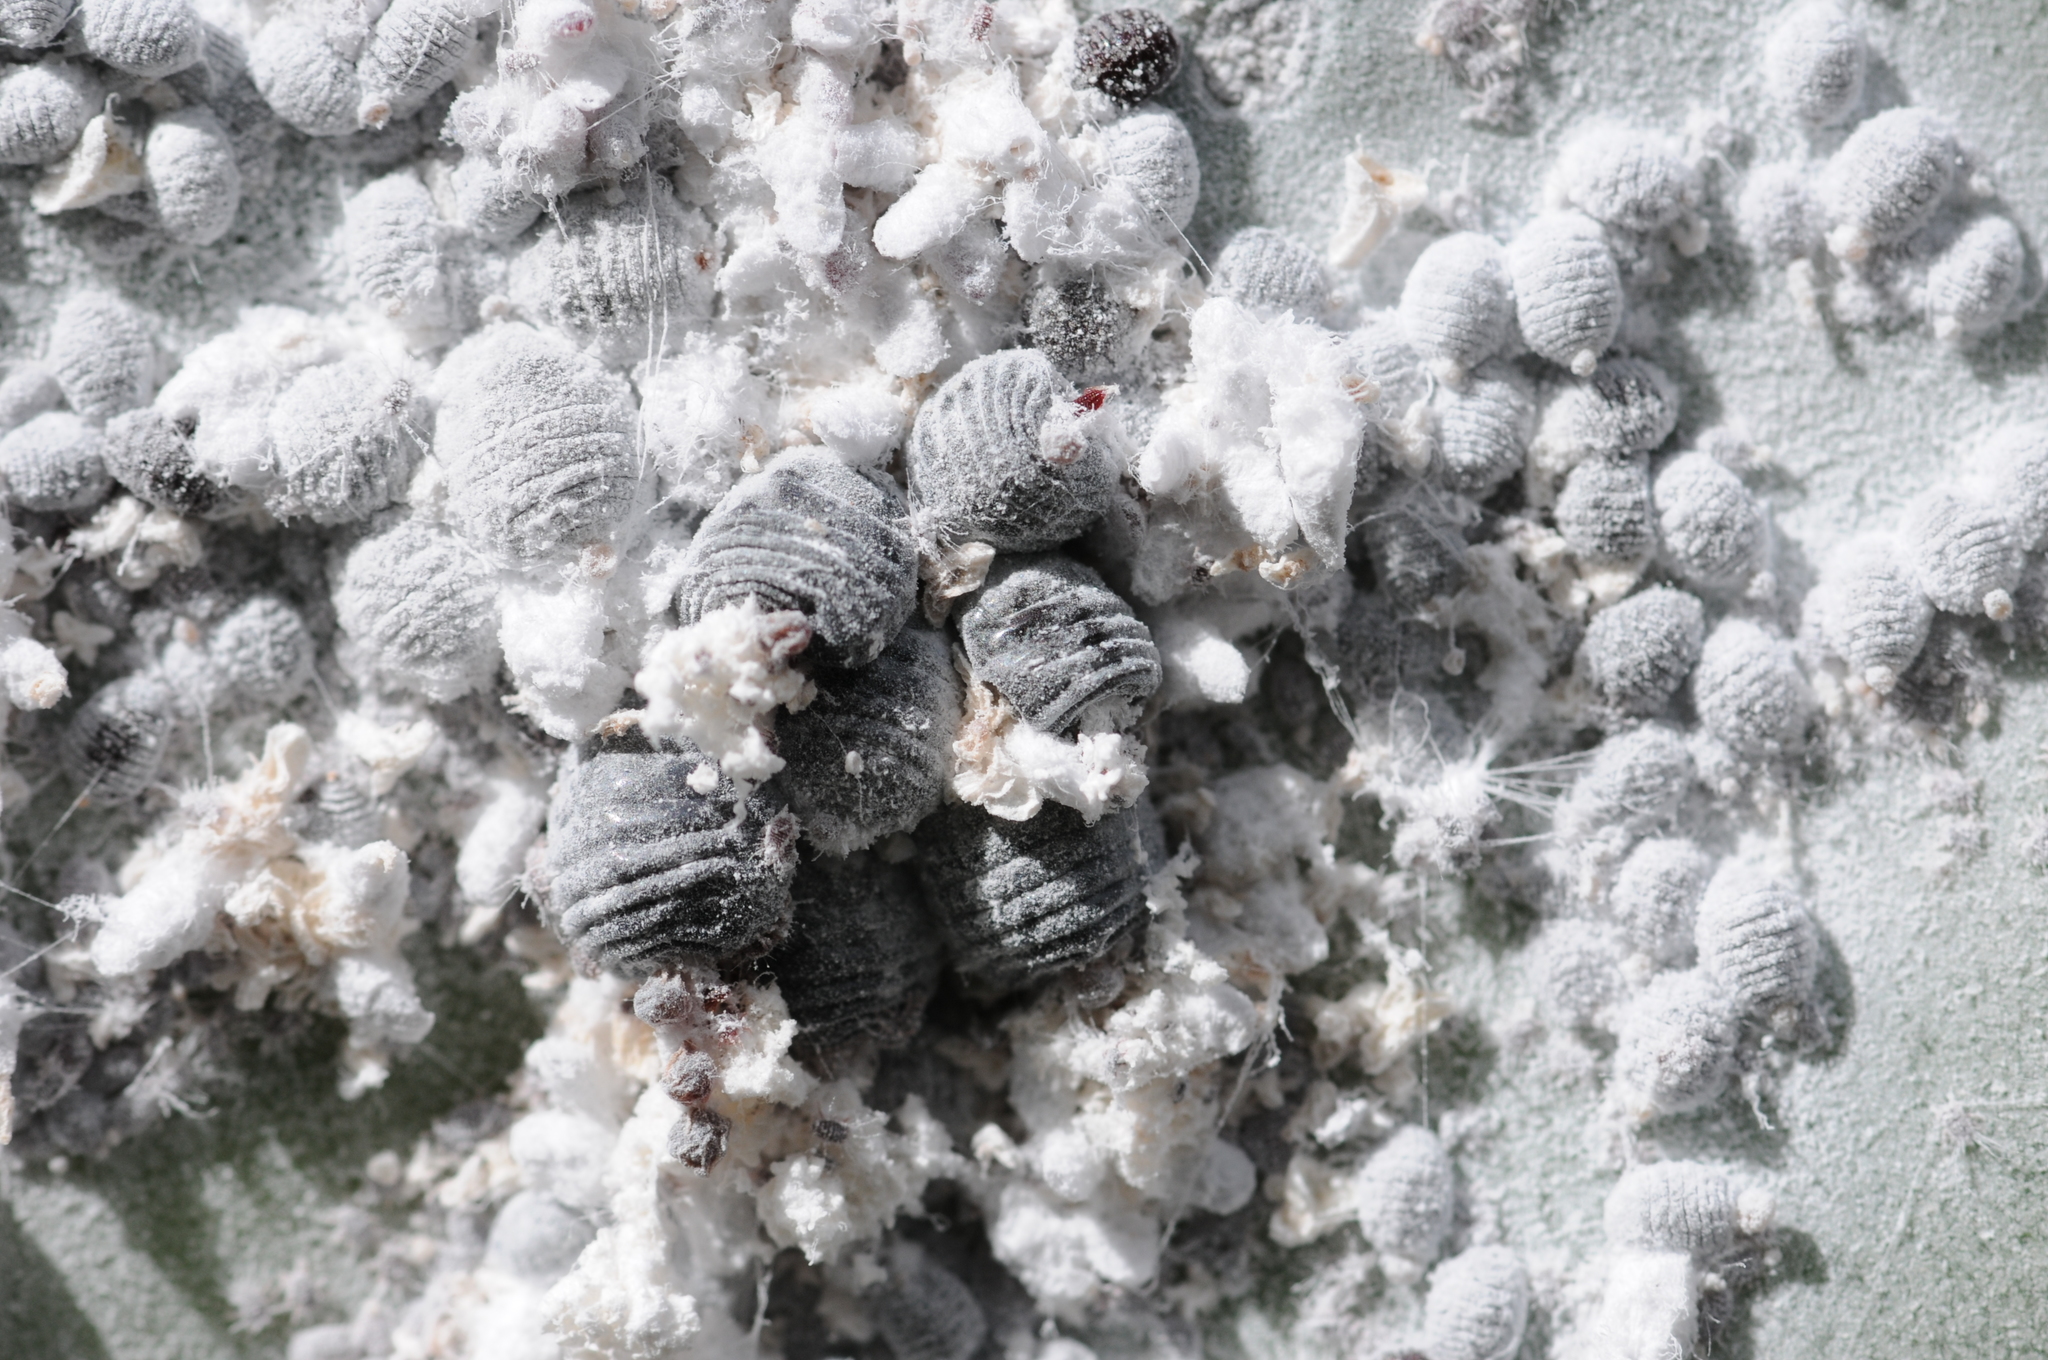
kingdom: Animalia
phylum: Arthropoda
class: Insecta
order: Hemiptera
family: Dactylopiidae
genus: Dactylopius
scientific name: Dactylopius coccus
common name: Cochineal
